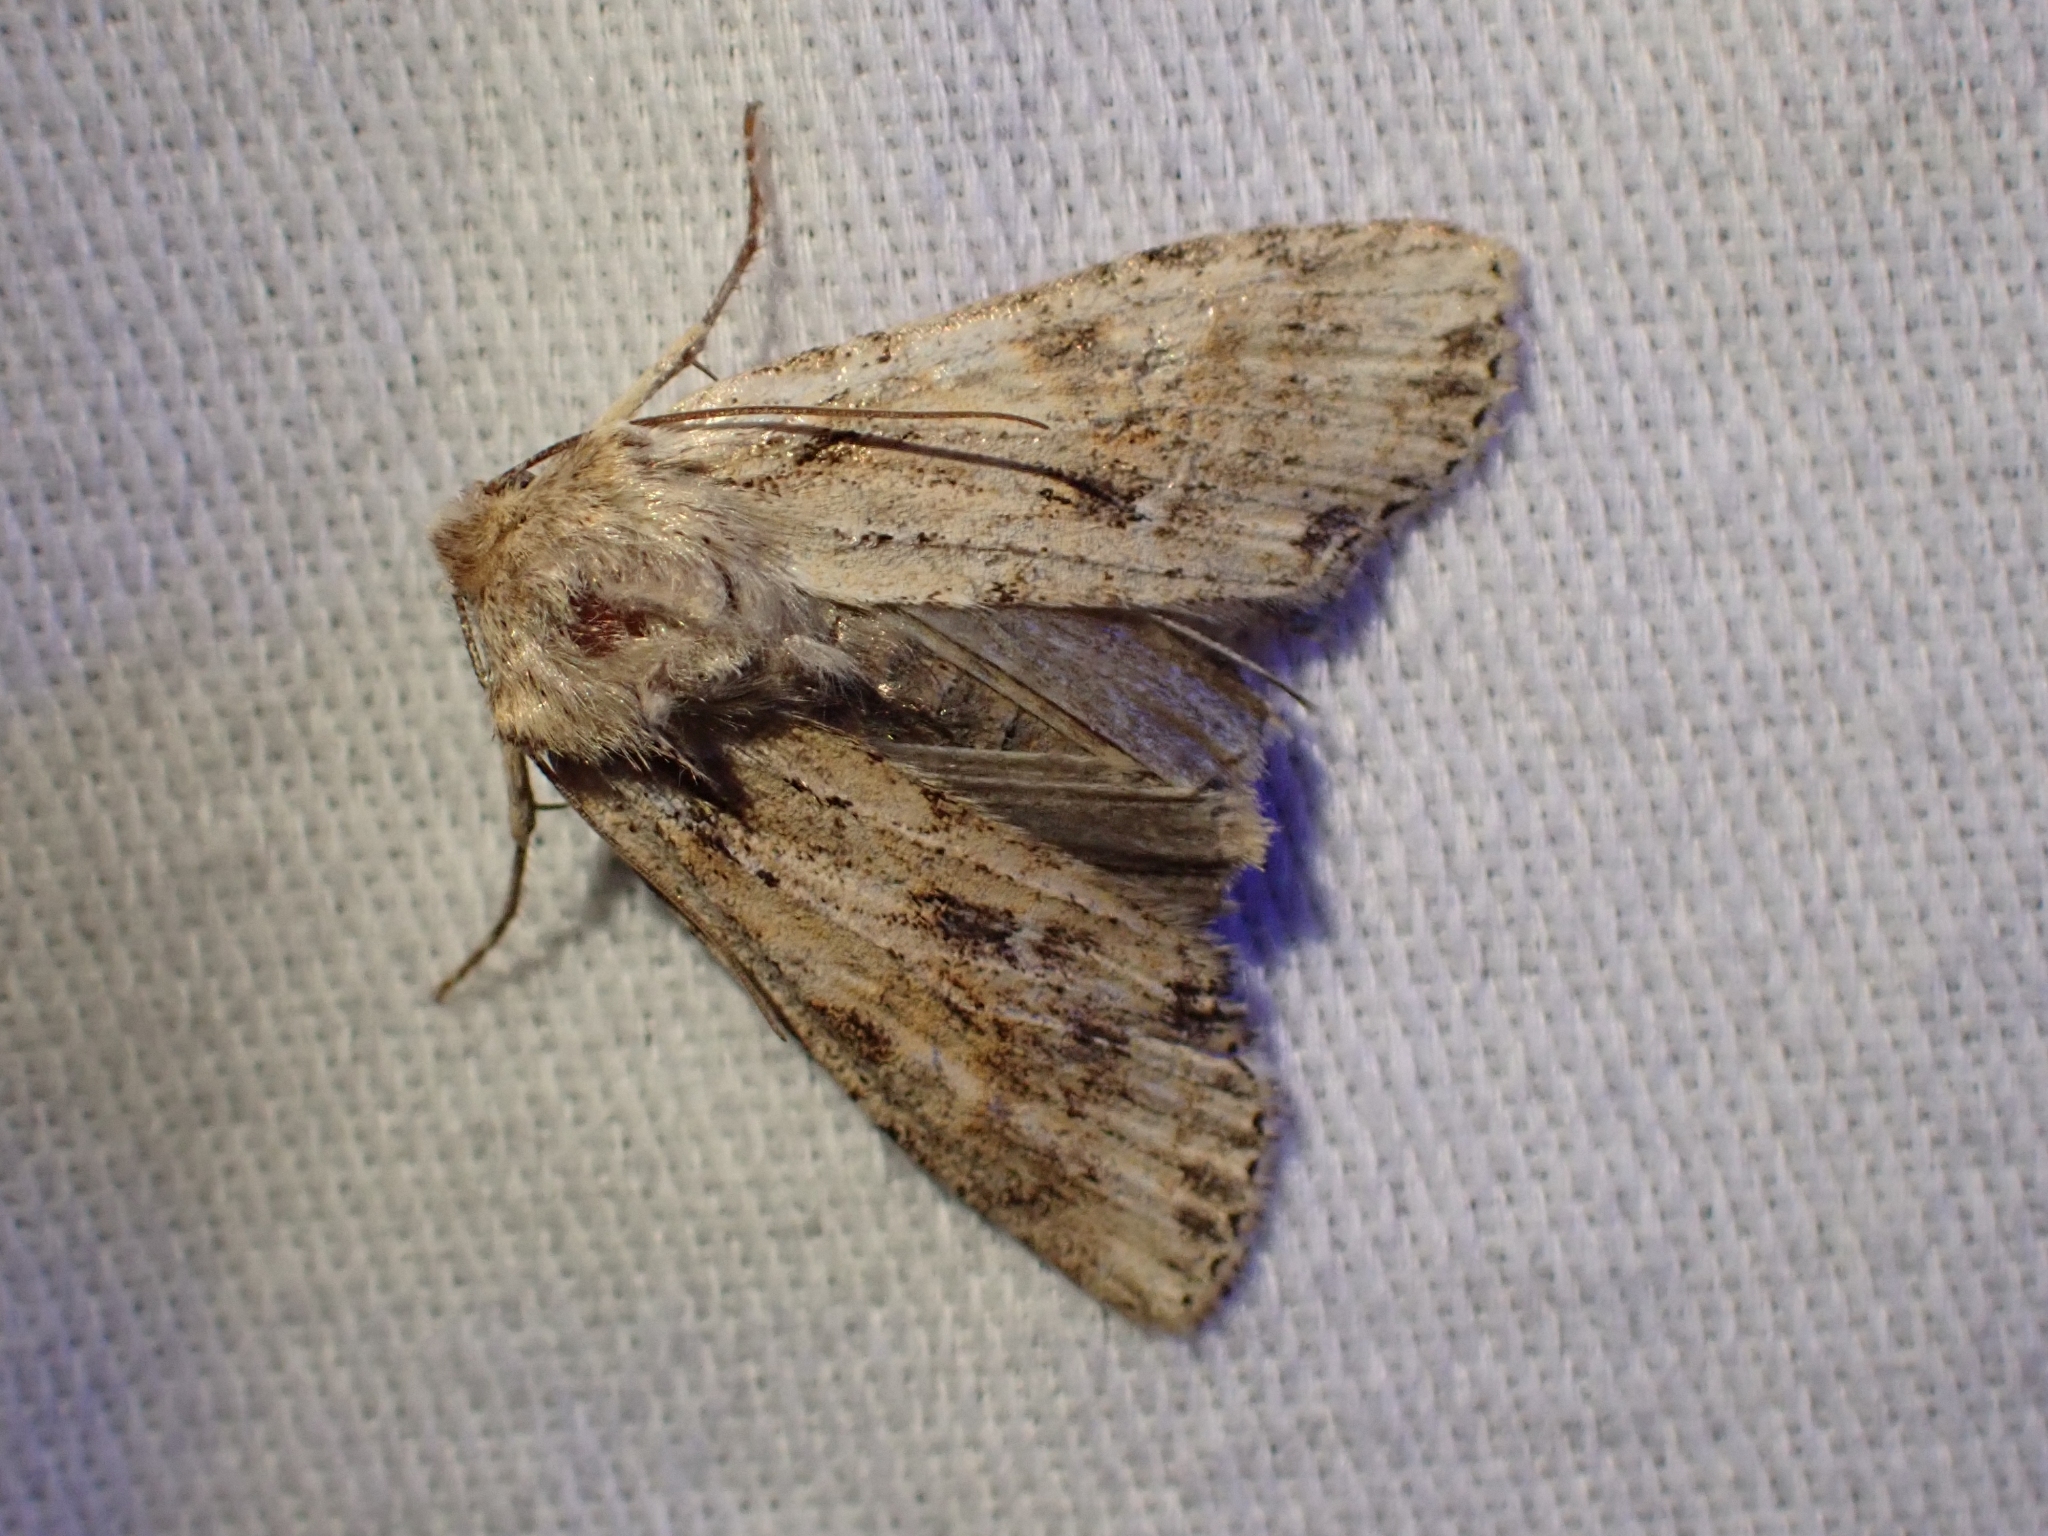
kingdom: Animalia
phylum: Arthropoda
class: Insecta
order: Lepidoptera
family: Noctuidae
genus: Lithophane
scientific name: Lithophane innominata
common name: Nameless pinion moth
